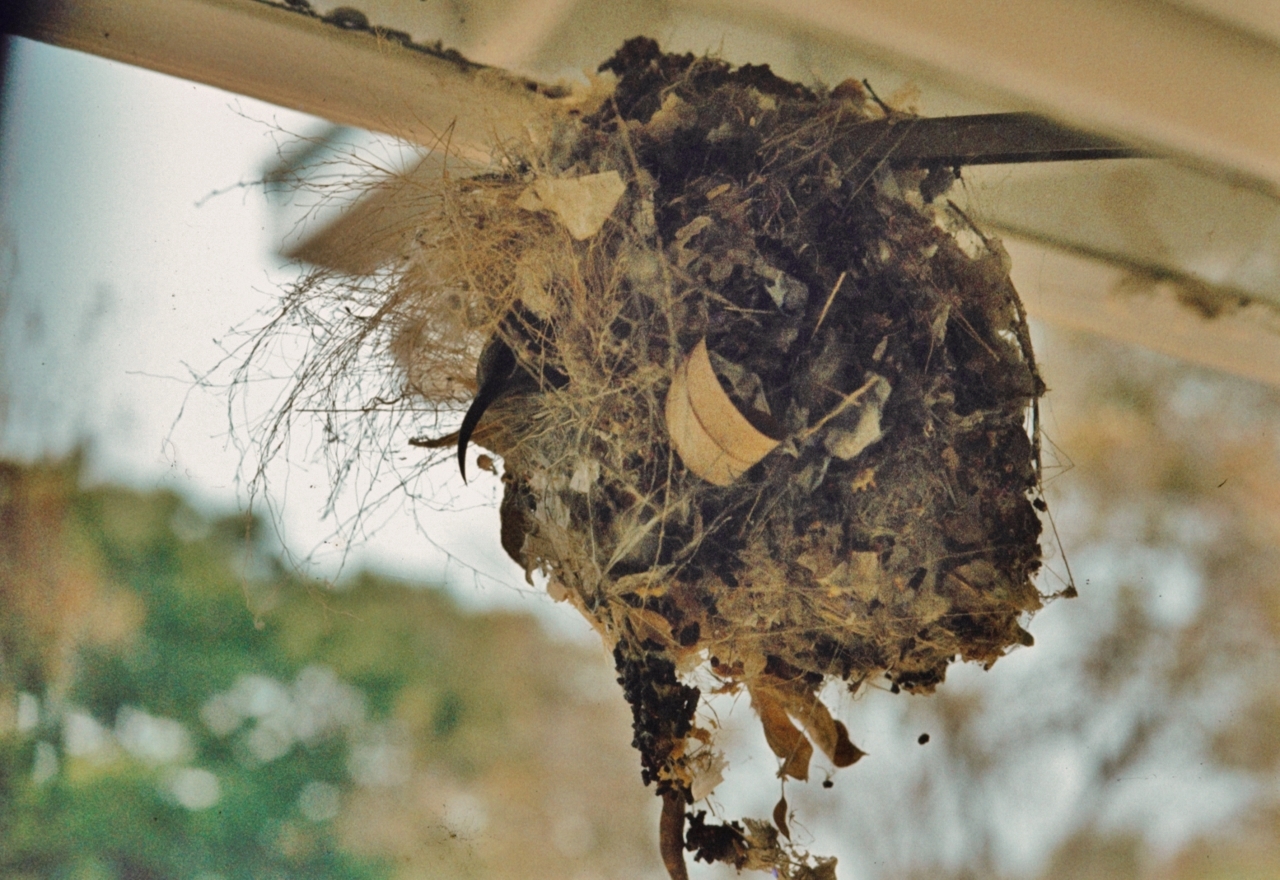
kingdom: Animalia
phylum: Chordata
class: Aves
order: Passeriformes
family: Nectariniidae
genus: Chalcomitra
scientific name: Chalcomitra senegalensis
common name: Scarlet-chested sunbird
